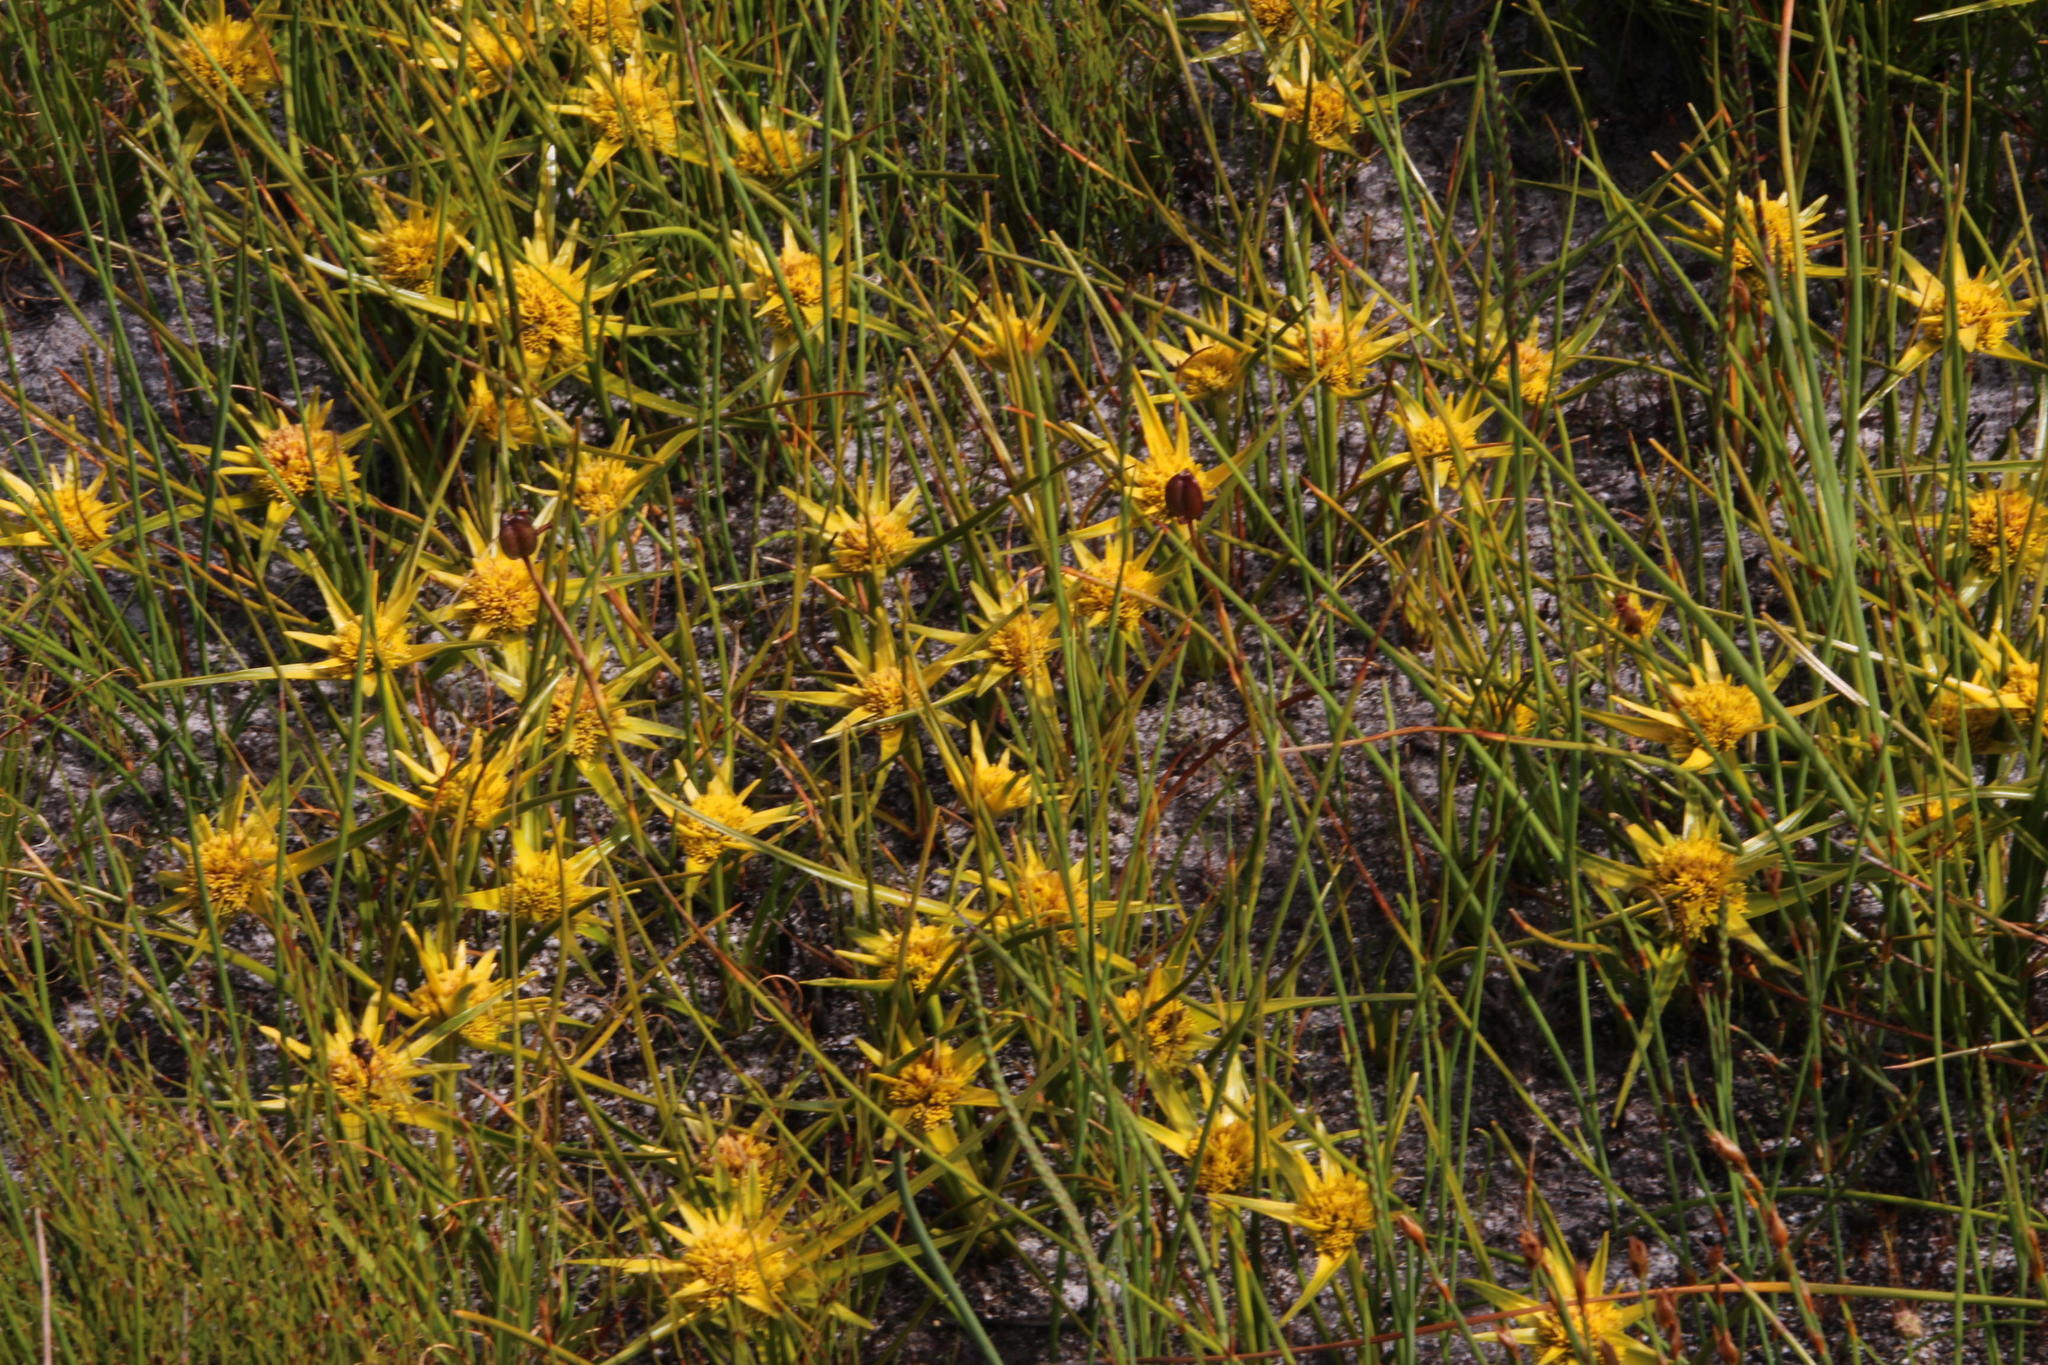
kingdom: Plantae
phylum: Tracheophyta
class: Liliopsida
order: Poales
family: Cyperaceae
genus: Ficinia
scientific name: Ficinia radiata
